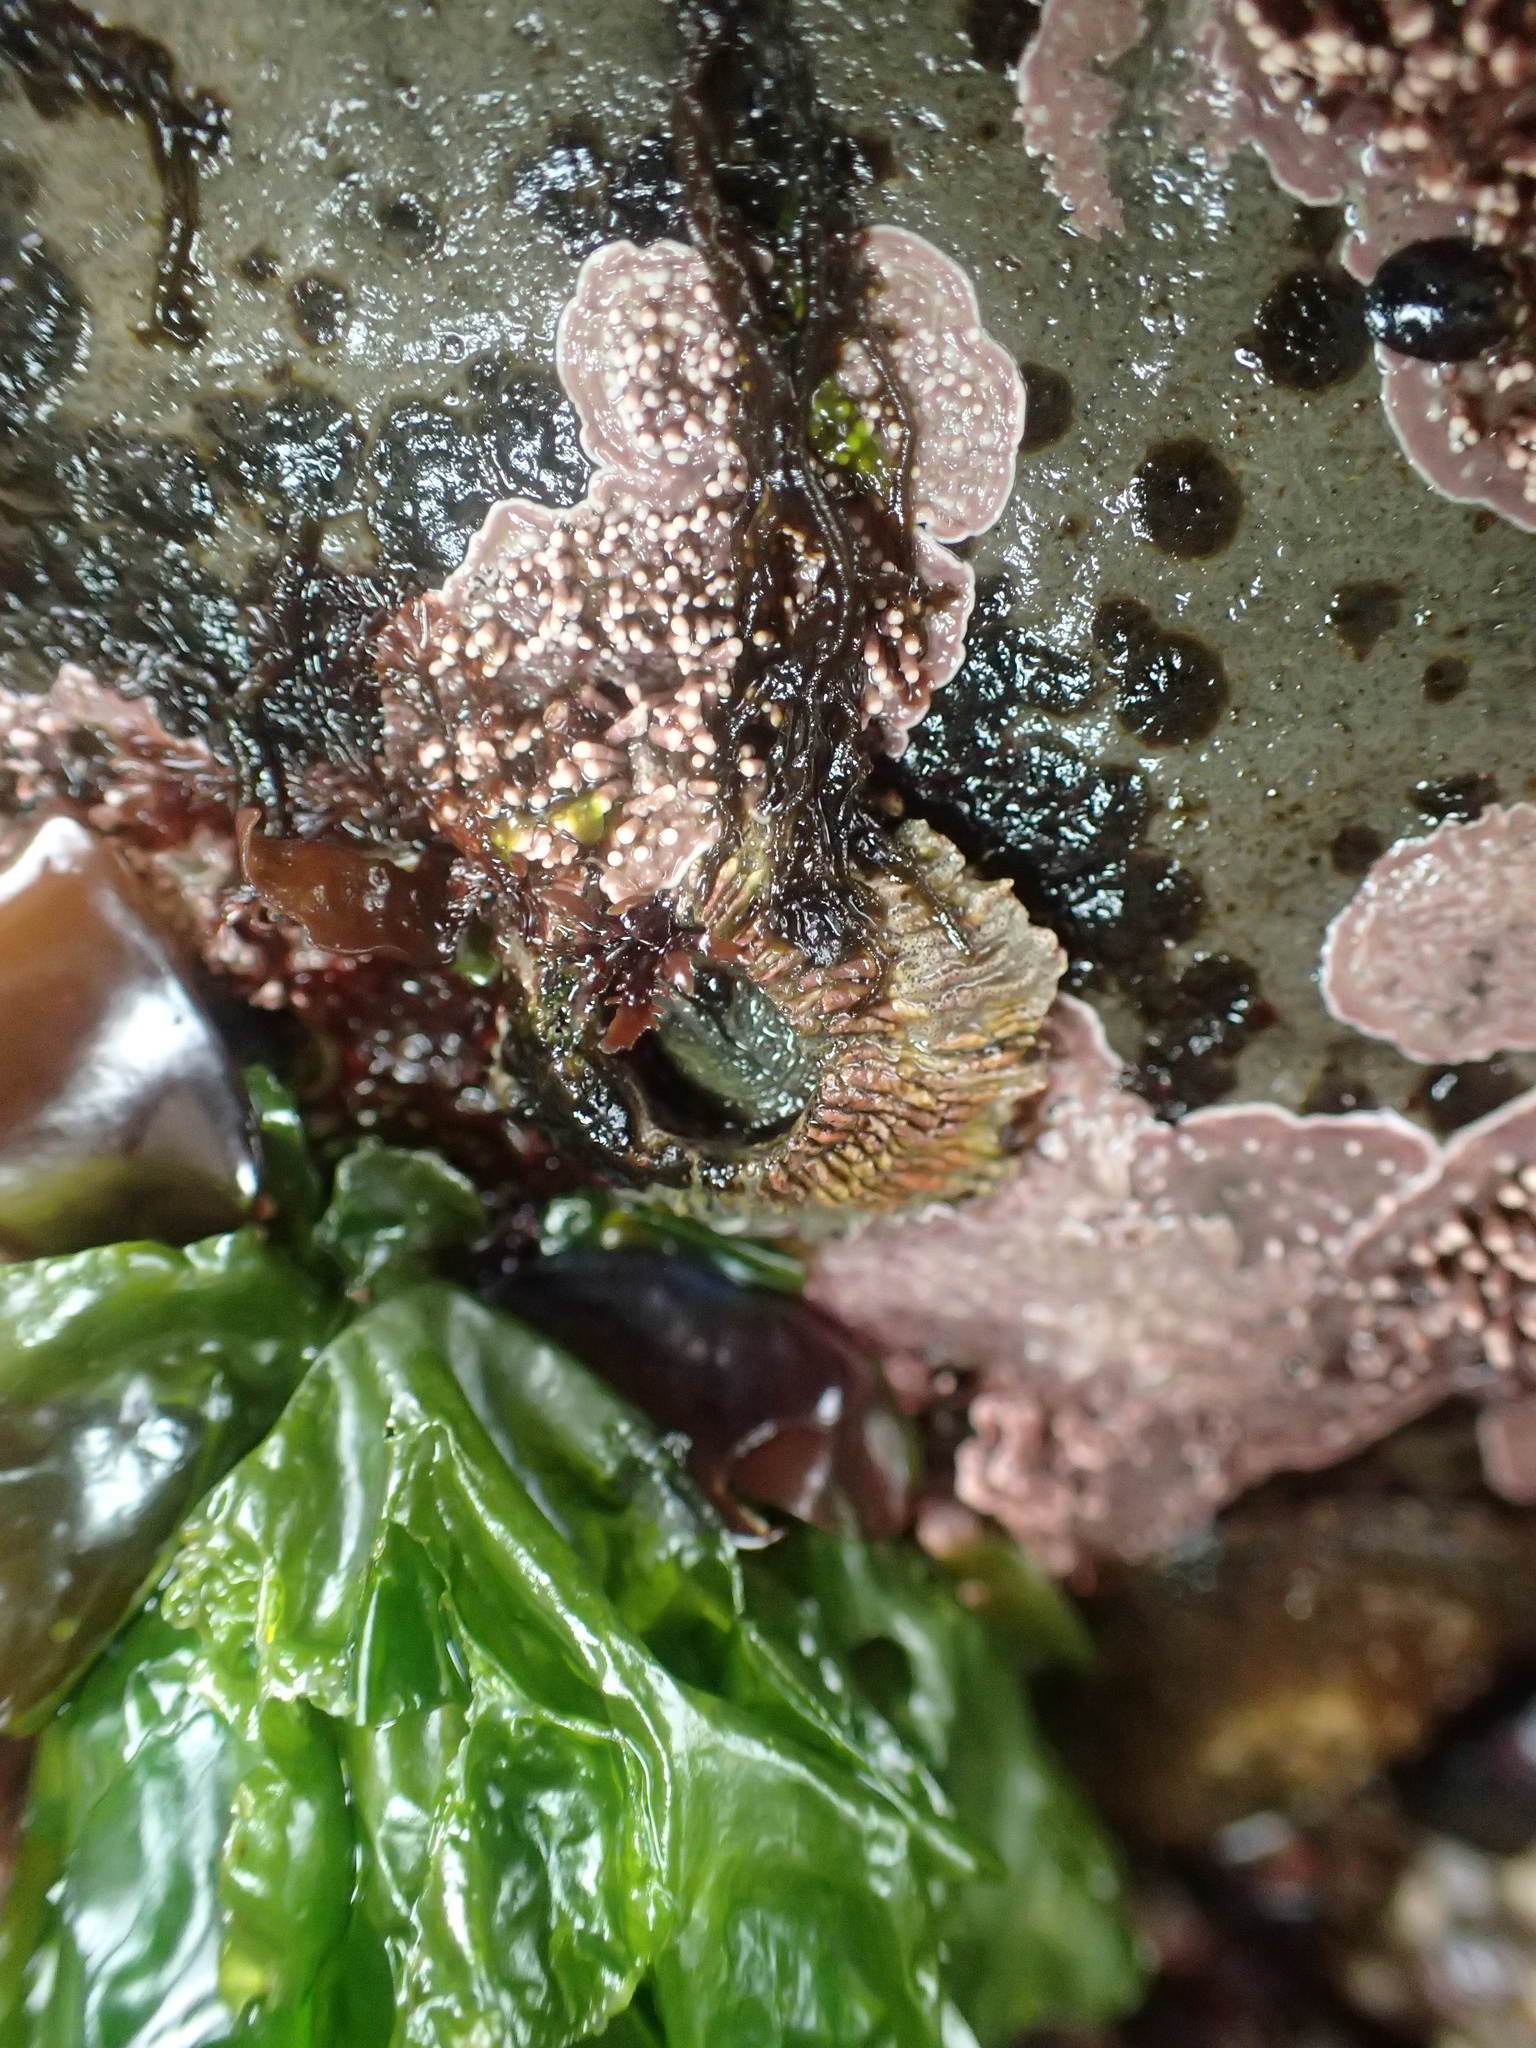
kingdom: Animalia
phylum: Arthropoda
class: Maxillopoda
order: Sessilia
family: Tetraclitidae
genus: Tetraclita
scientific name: Tetraclita rubescens
